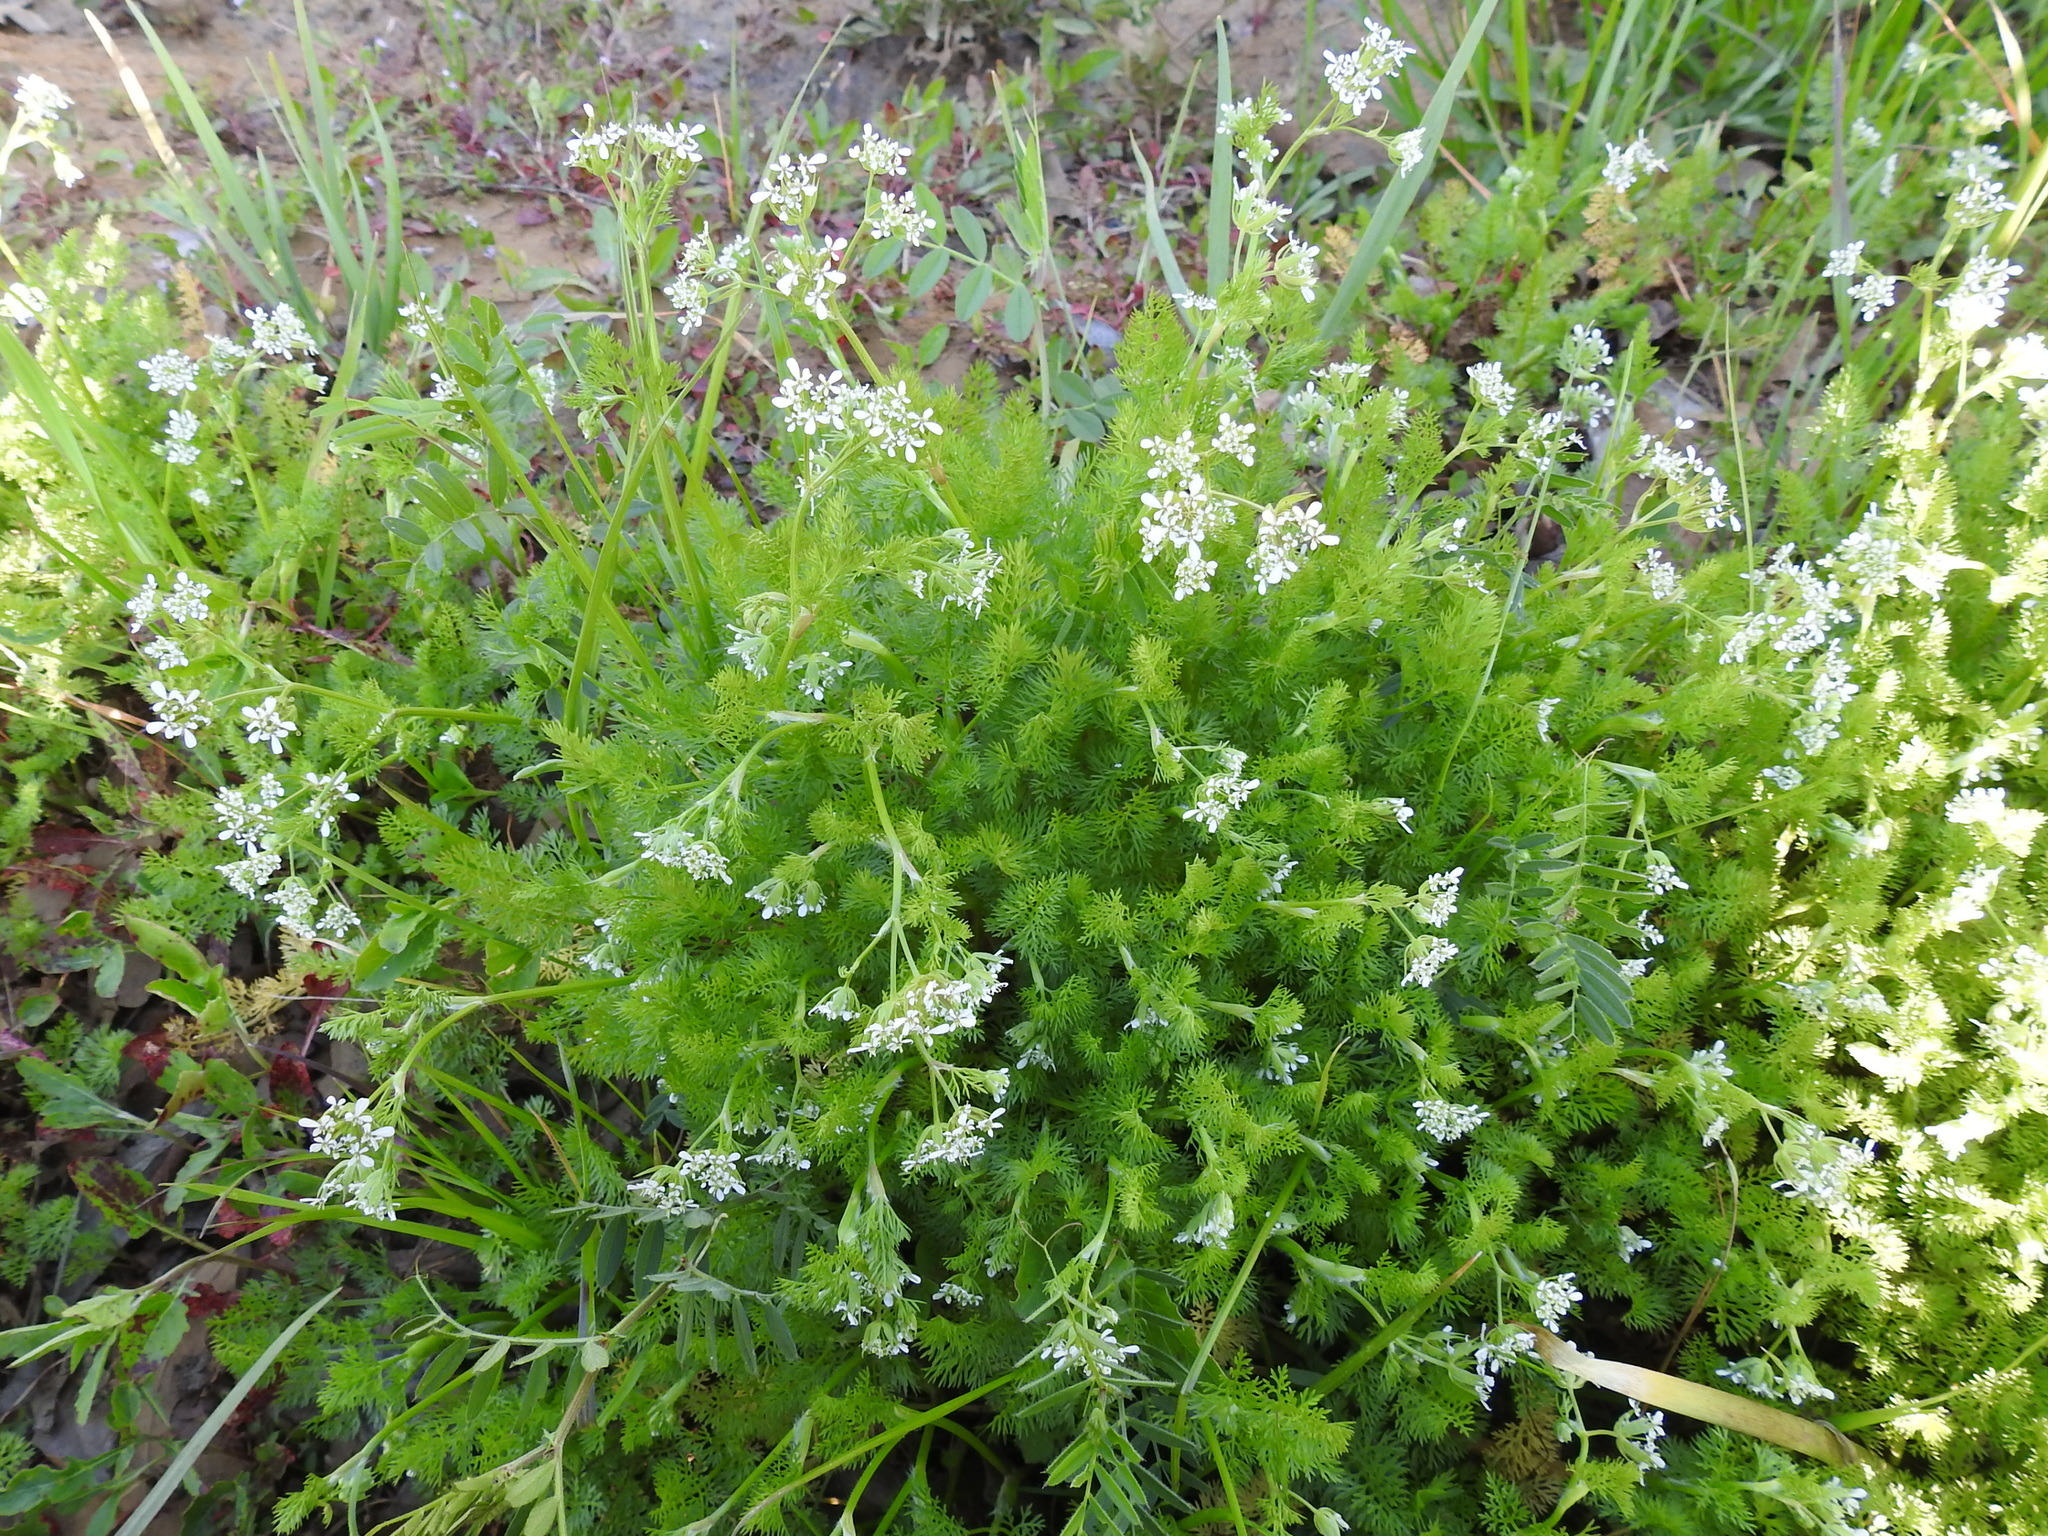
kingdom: Plantae
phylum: Tracheophyta
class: Magnoliopsida
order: Apiales
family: Apiaceae
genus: Scandix
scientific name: Scandix pecten-veneris
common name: Shepherd's-needle
